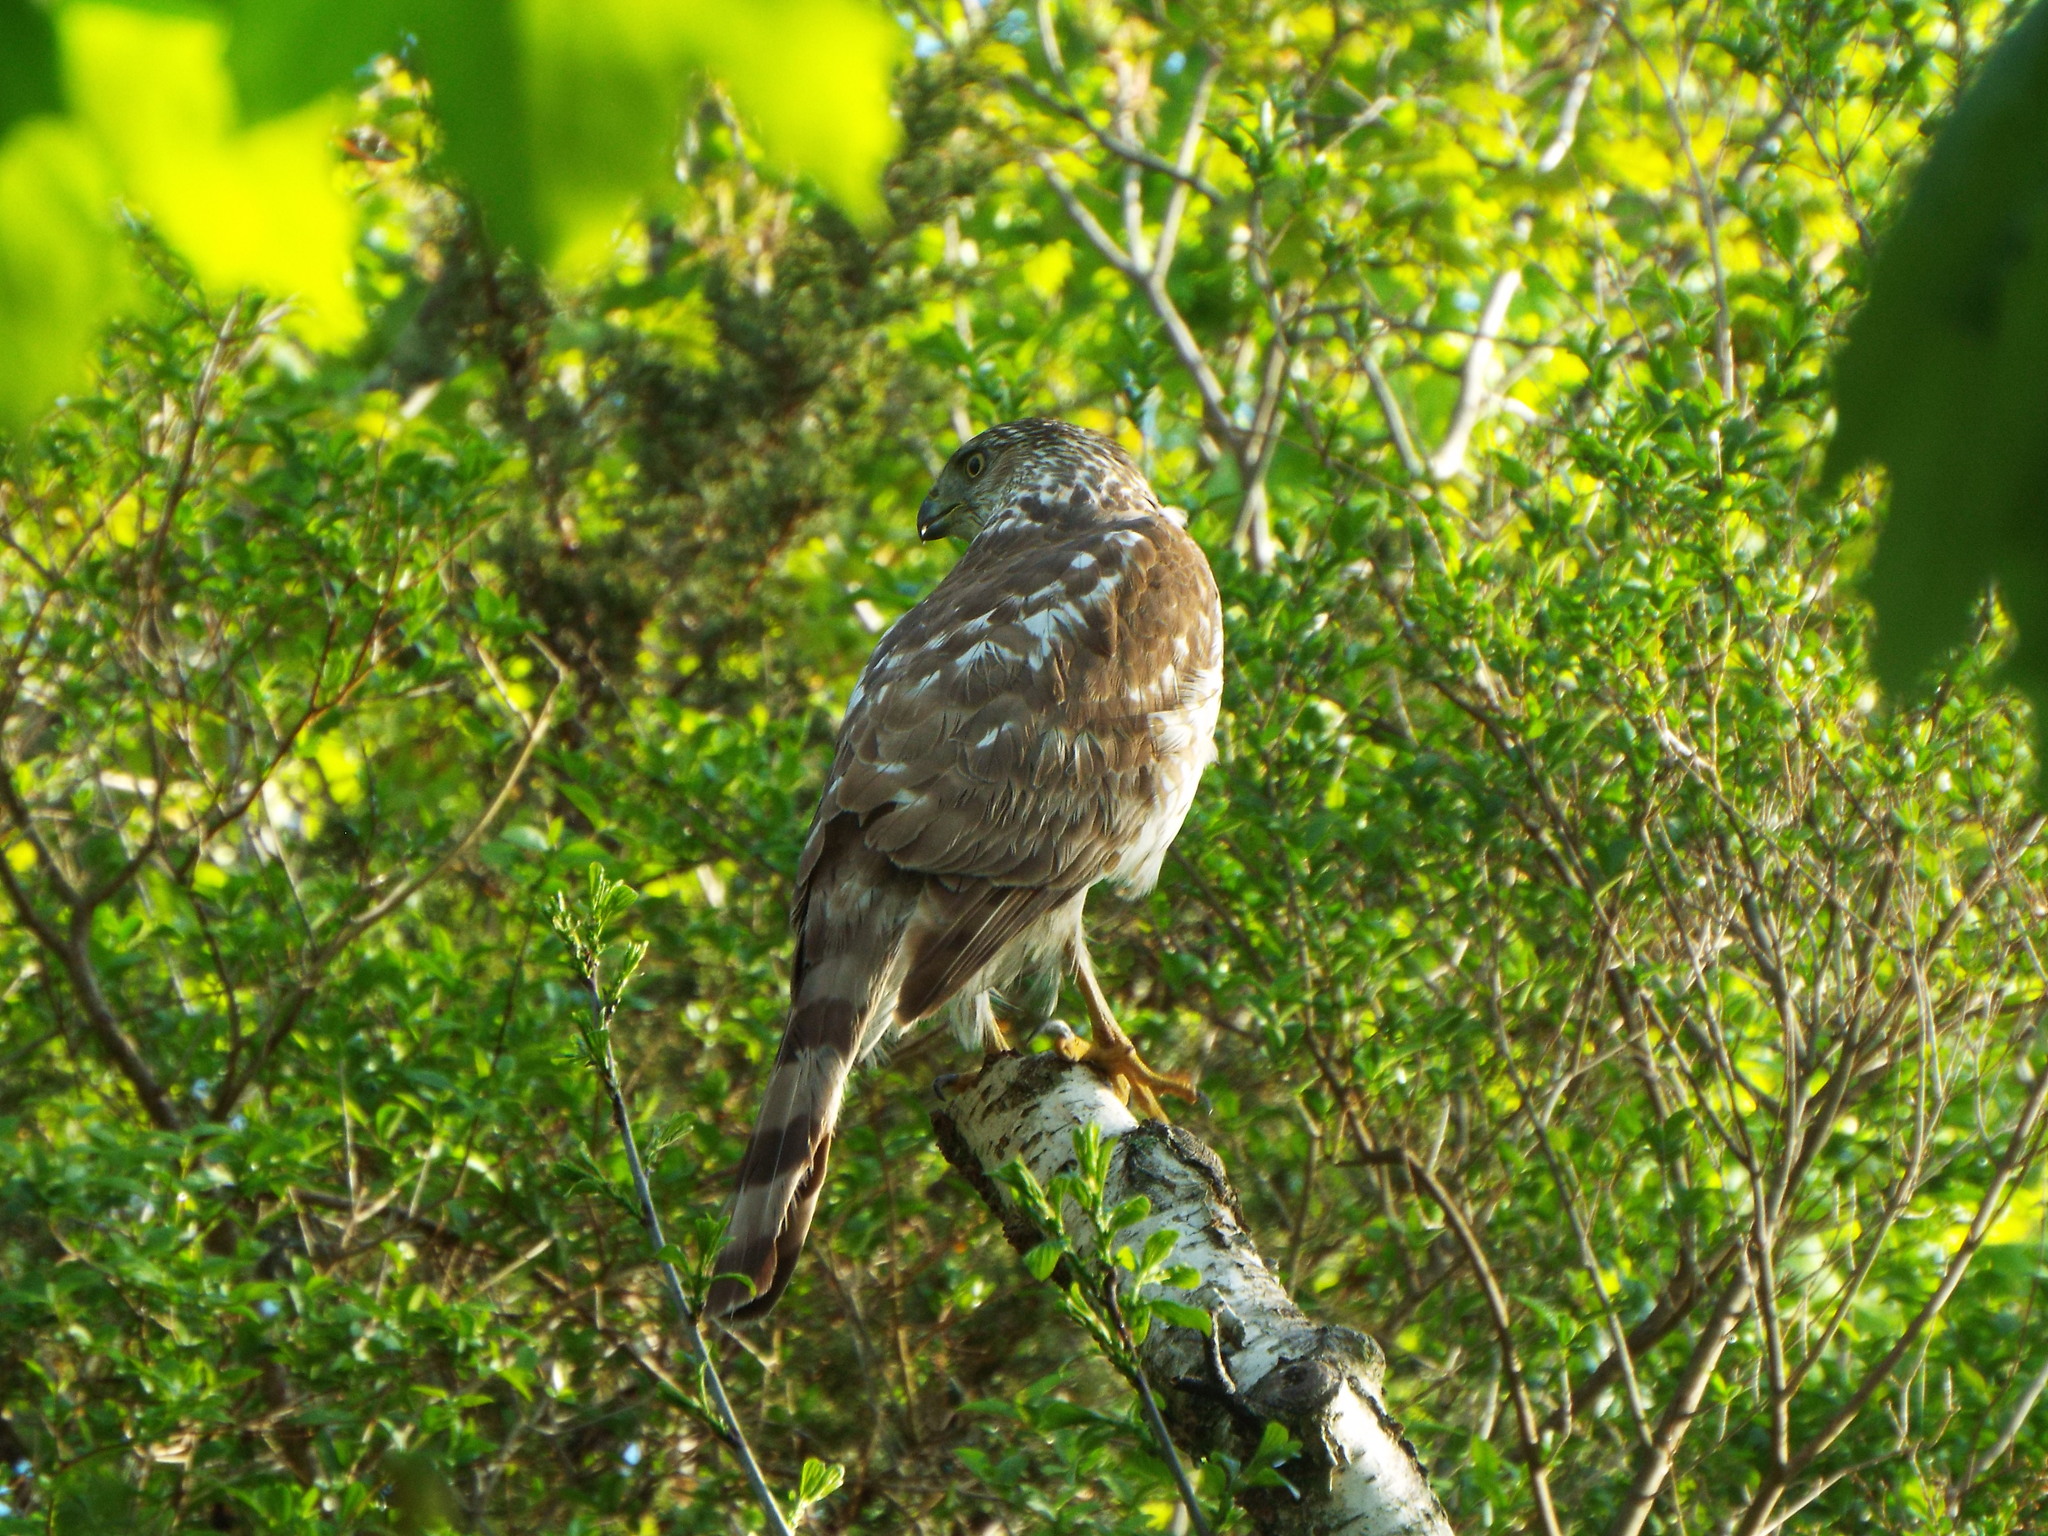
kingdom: Animalia
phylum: Chordata
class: Aves
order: Accipitriformes
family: Accipitridae
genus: Accipiter
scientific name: Accipiter cooperii
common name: Cooper's hawk
